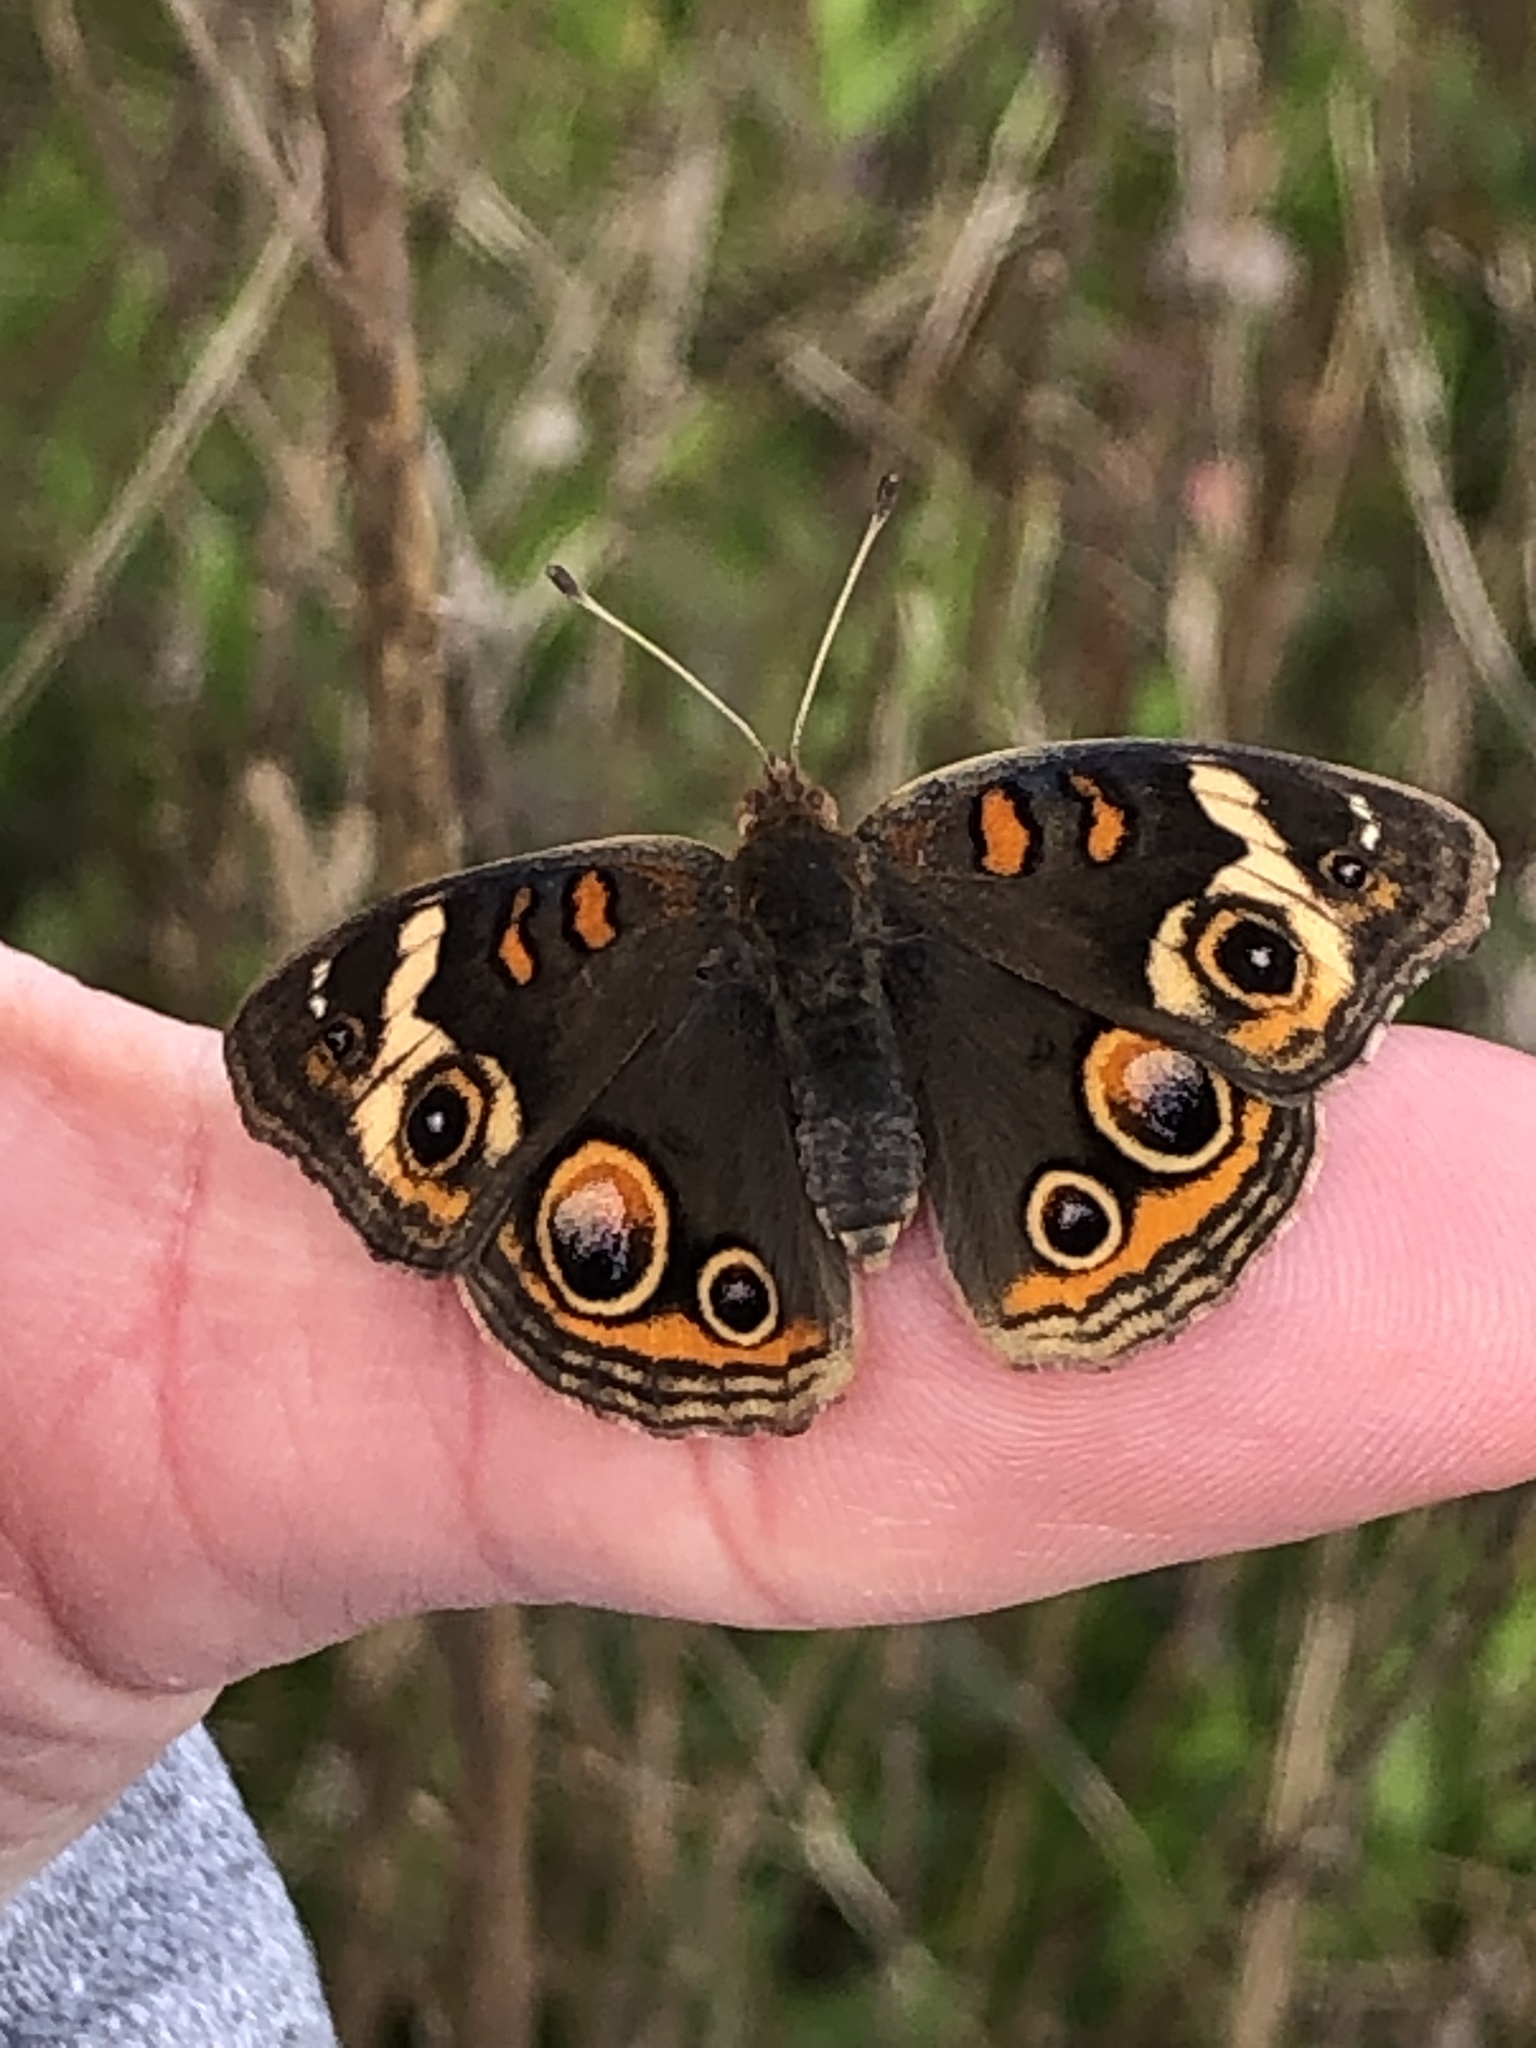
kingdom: Animalia
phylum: Arthropoda
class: Insecta
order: Lepidoptera
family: Nymphalidae
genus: Junonia
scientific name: Junonia coenia
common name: Common buckeye
